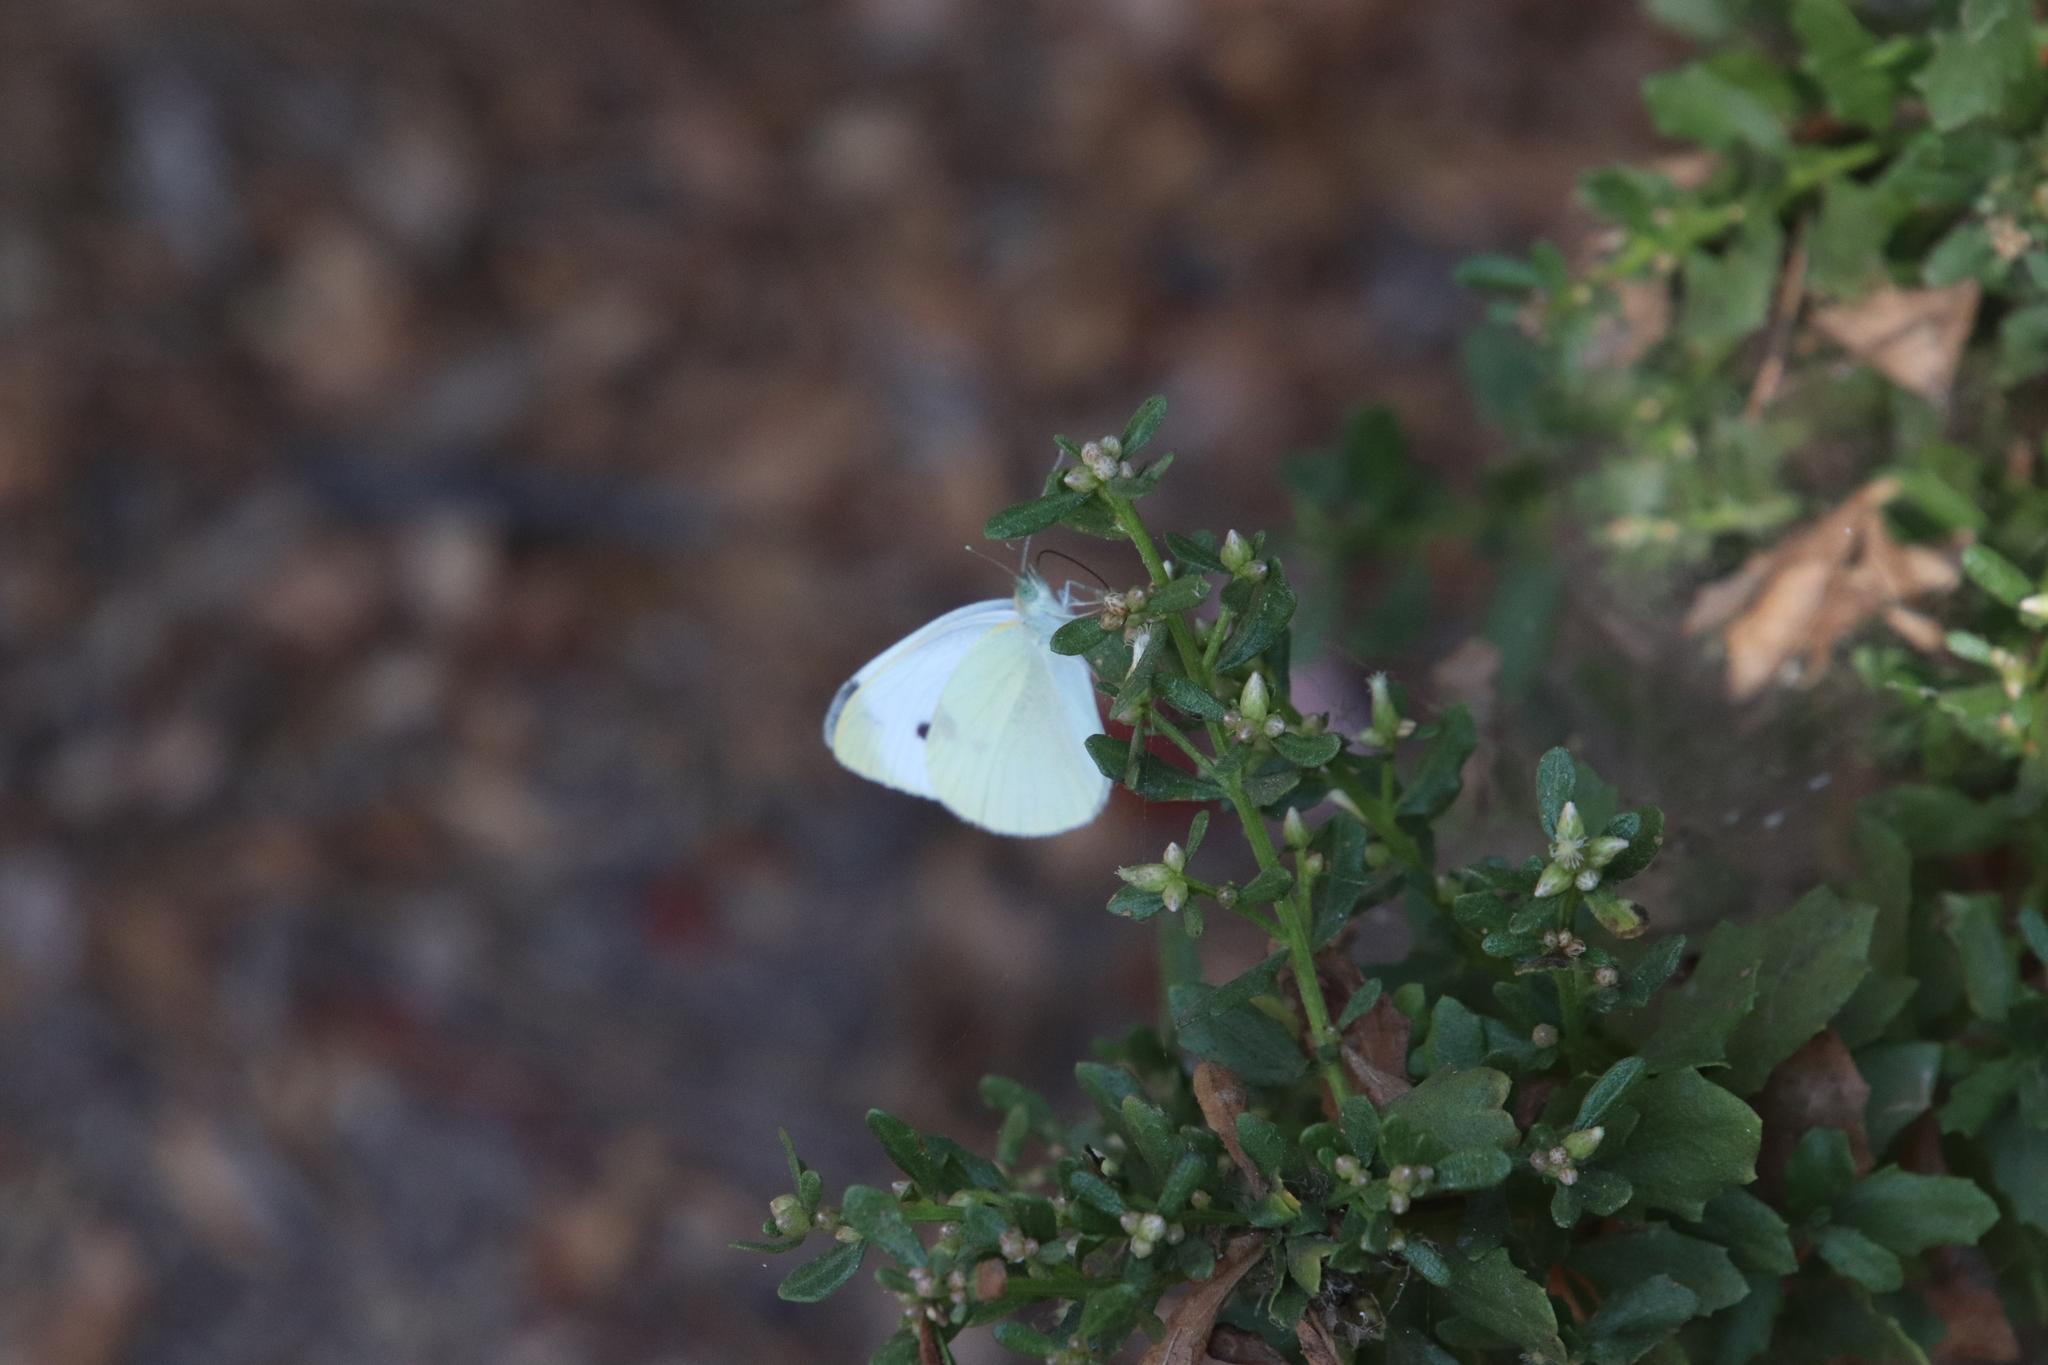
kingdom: Animalia
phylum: Arthropoda
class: Insecta
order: Lepidoptera
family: Pieridae
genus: Pieris
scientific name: Pieris rapae
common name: Small white
